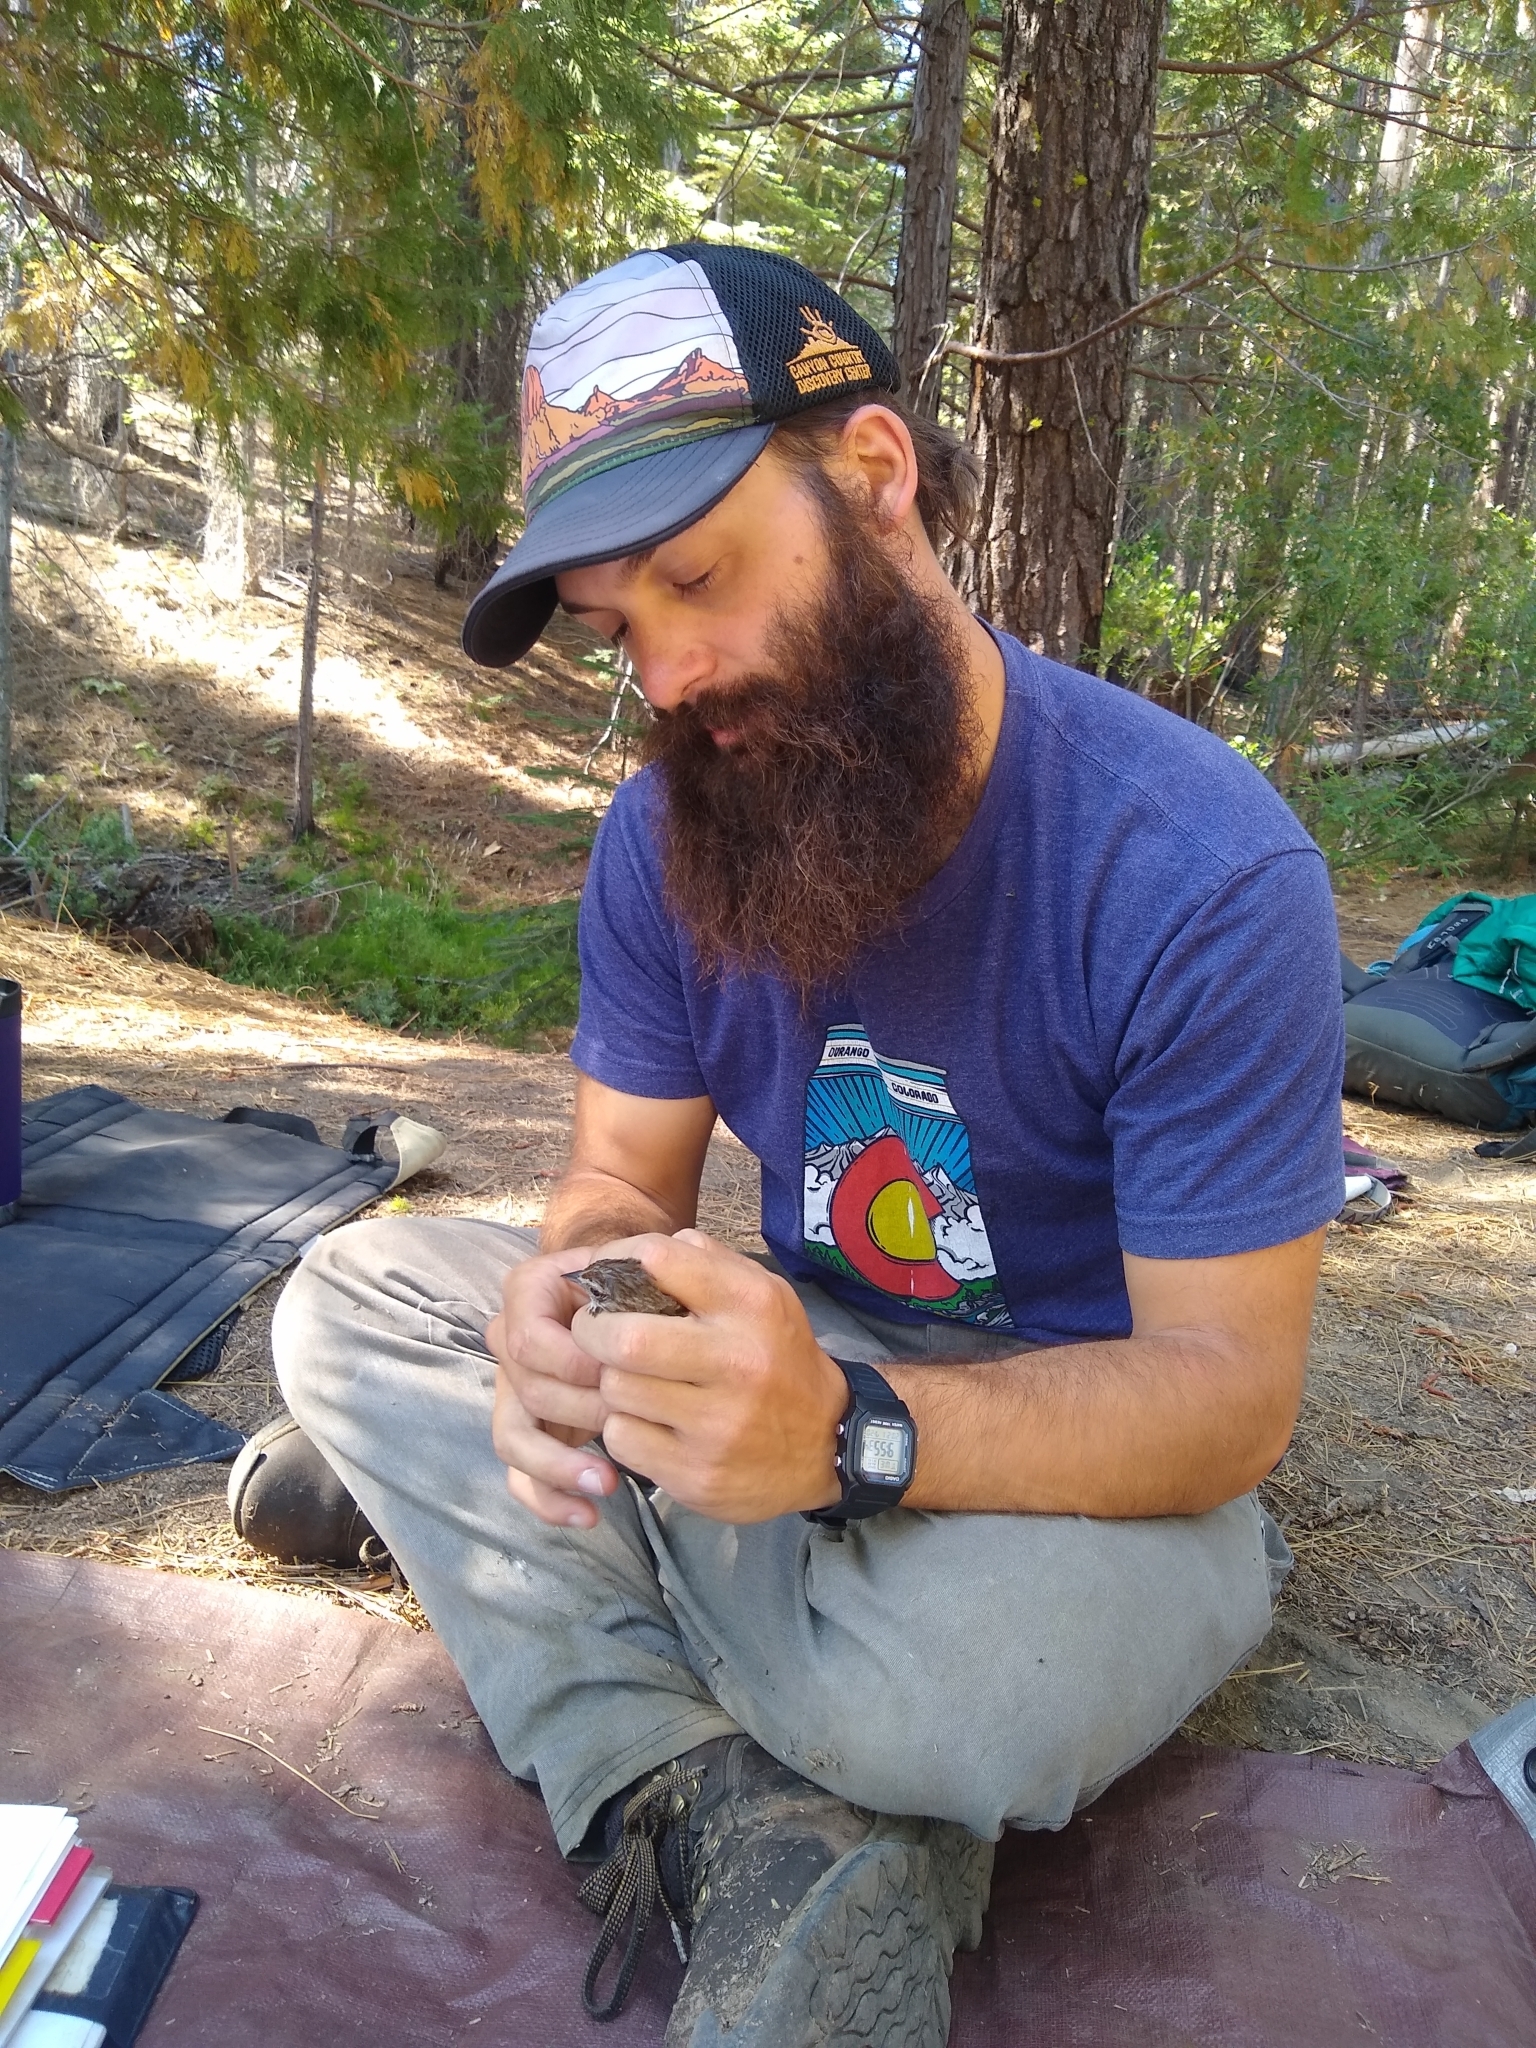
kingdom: Animalia
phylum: Chordata
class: Aves
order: Passeriformes
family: Passerellidae
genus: Melospiza
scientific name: Melospiza melodia
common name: Song sparrow
